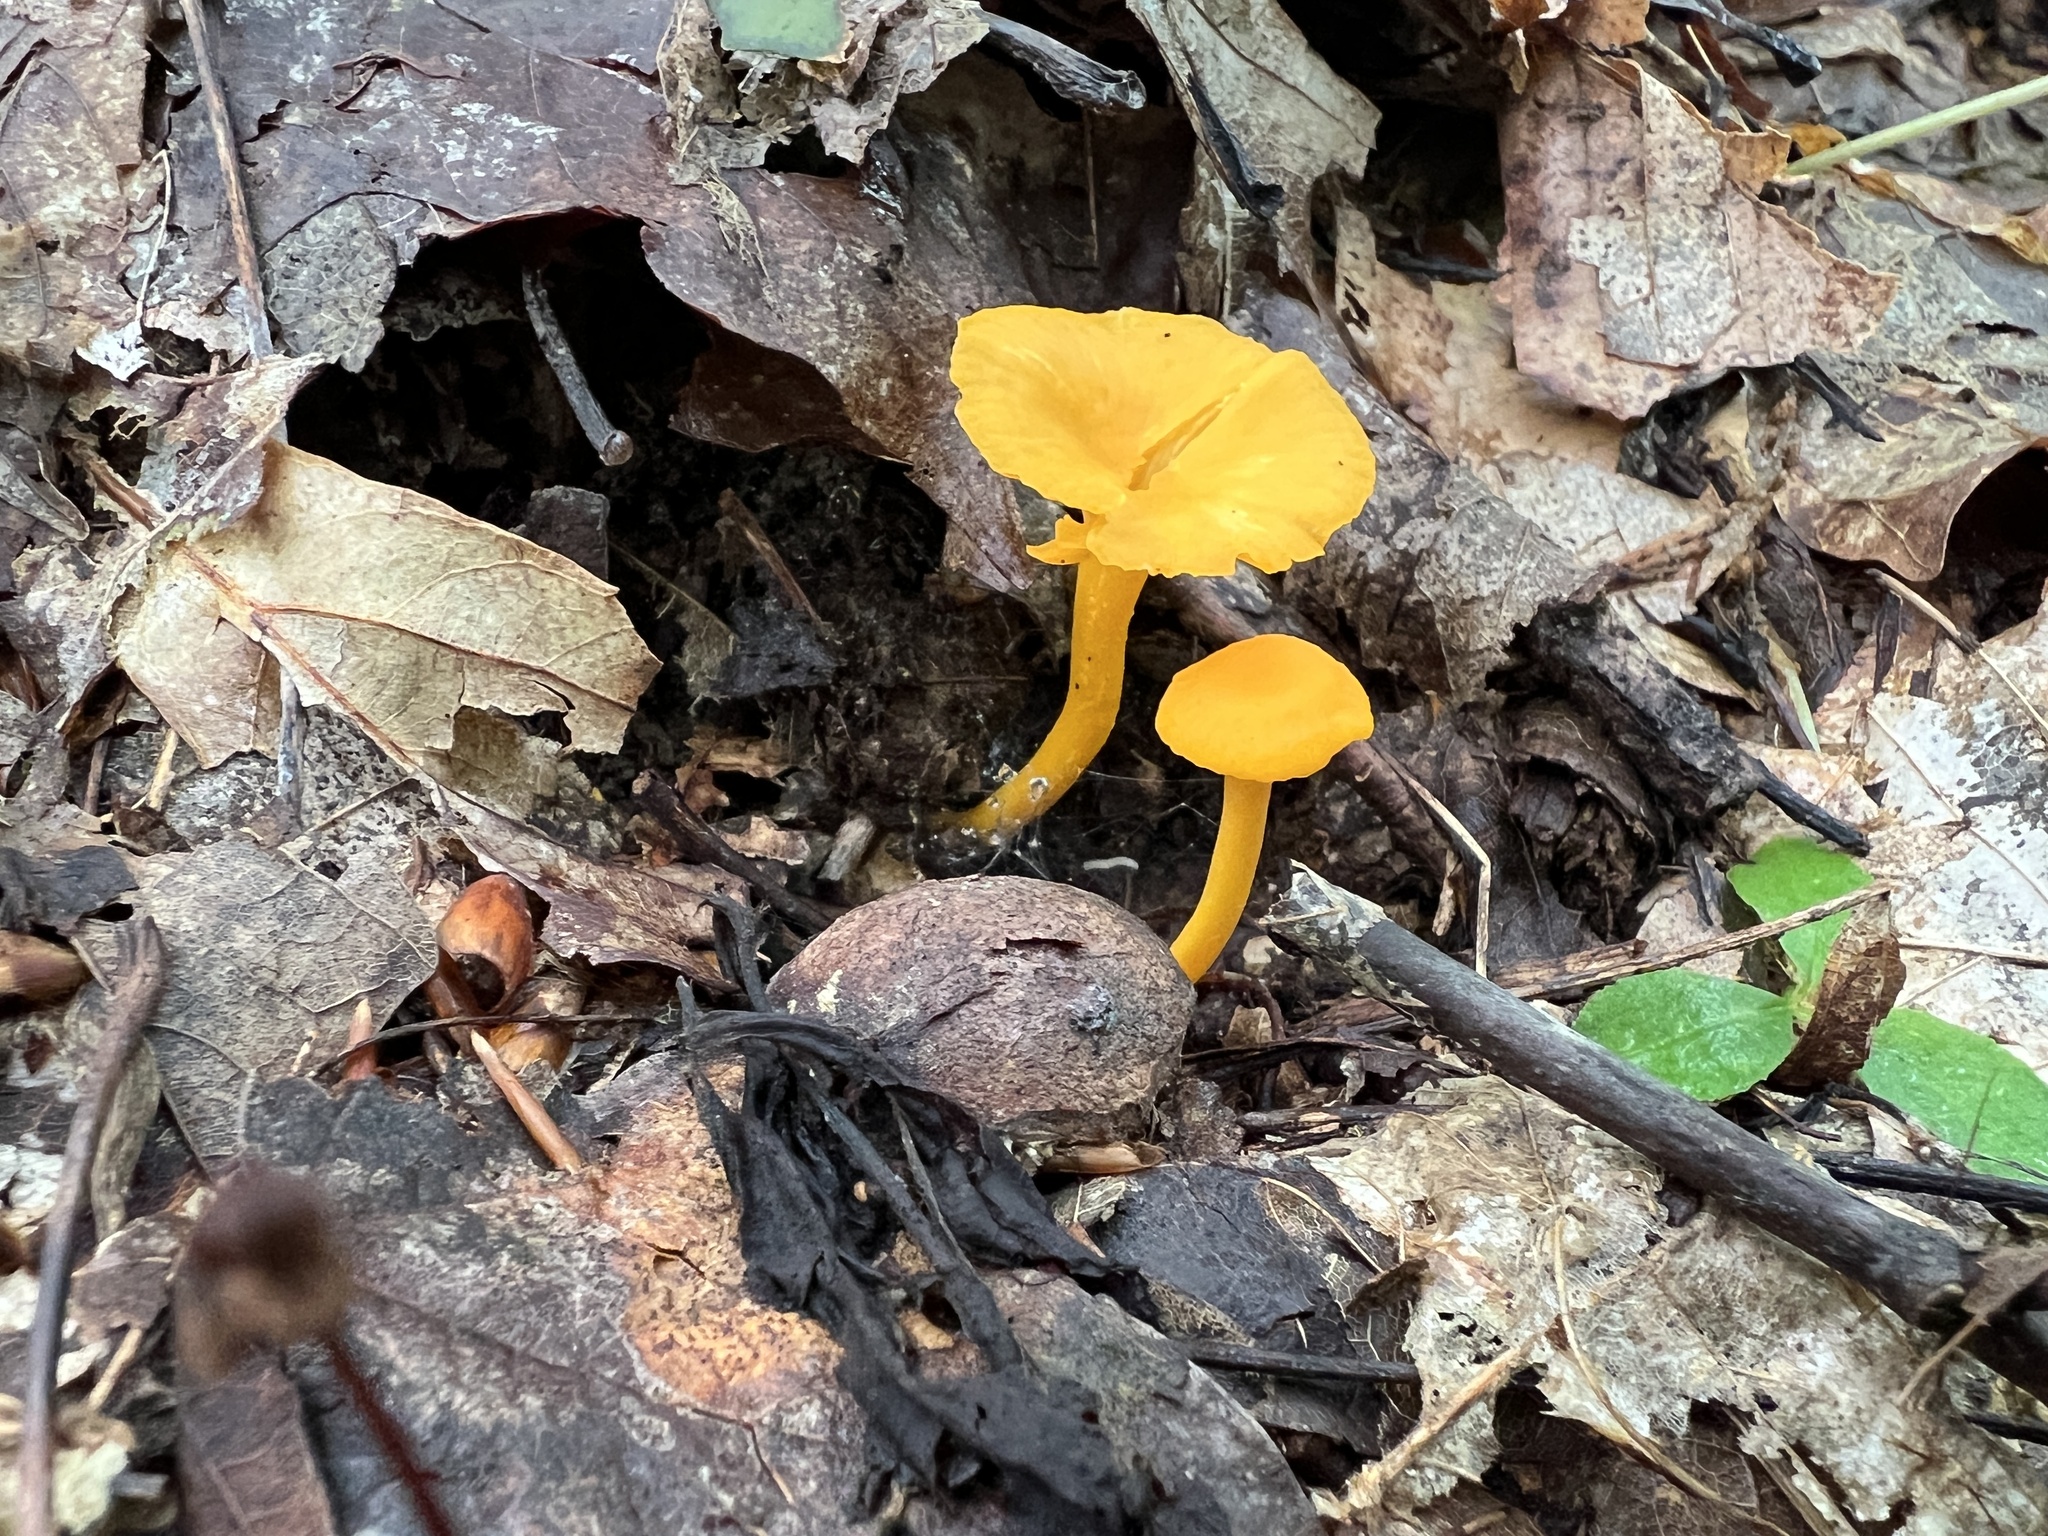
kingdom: Fungi
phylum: Basidiomycota
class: Agaricomycetes
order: Cantharellales
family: Hydnaceae
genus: Cantharellus
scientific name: Cantharellus minor
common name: Small chanterelle
